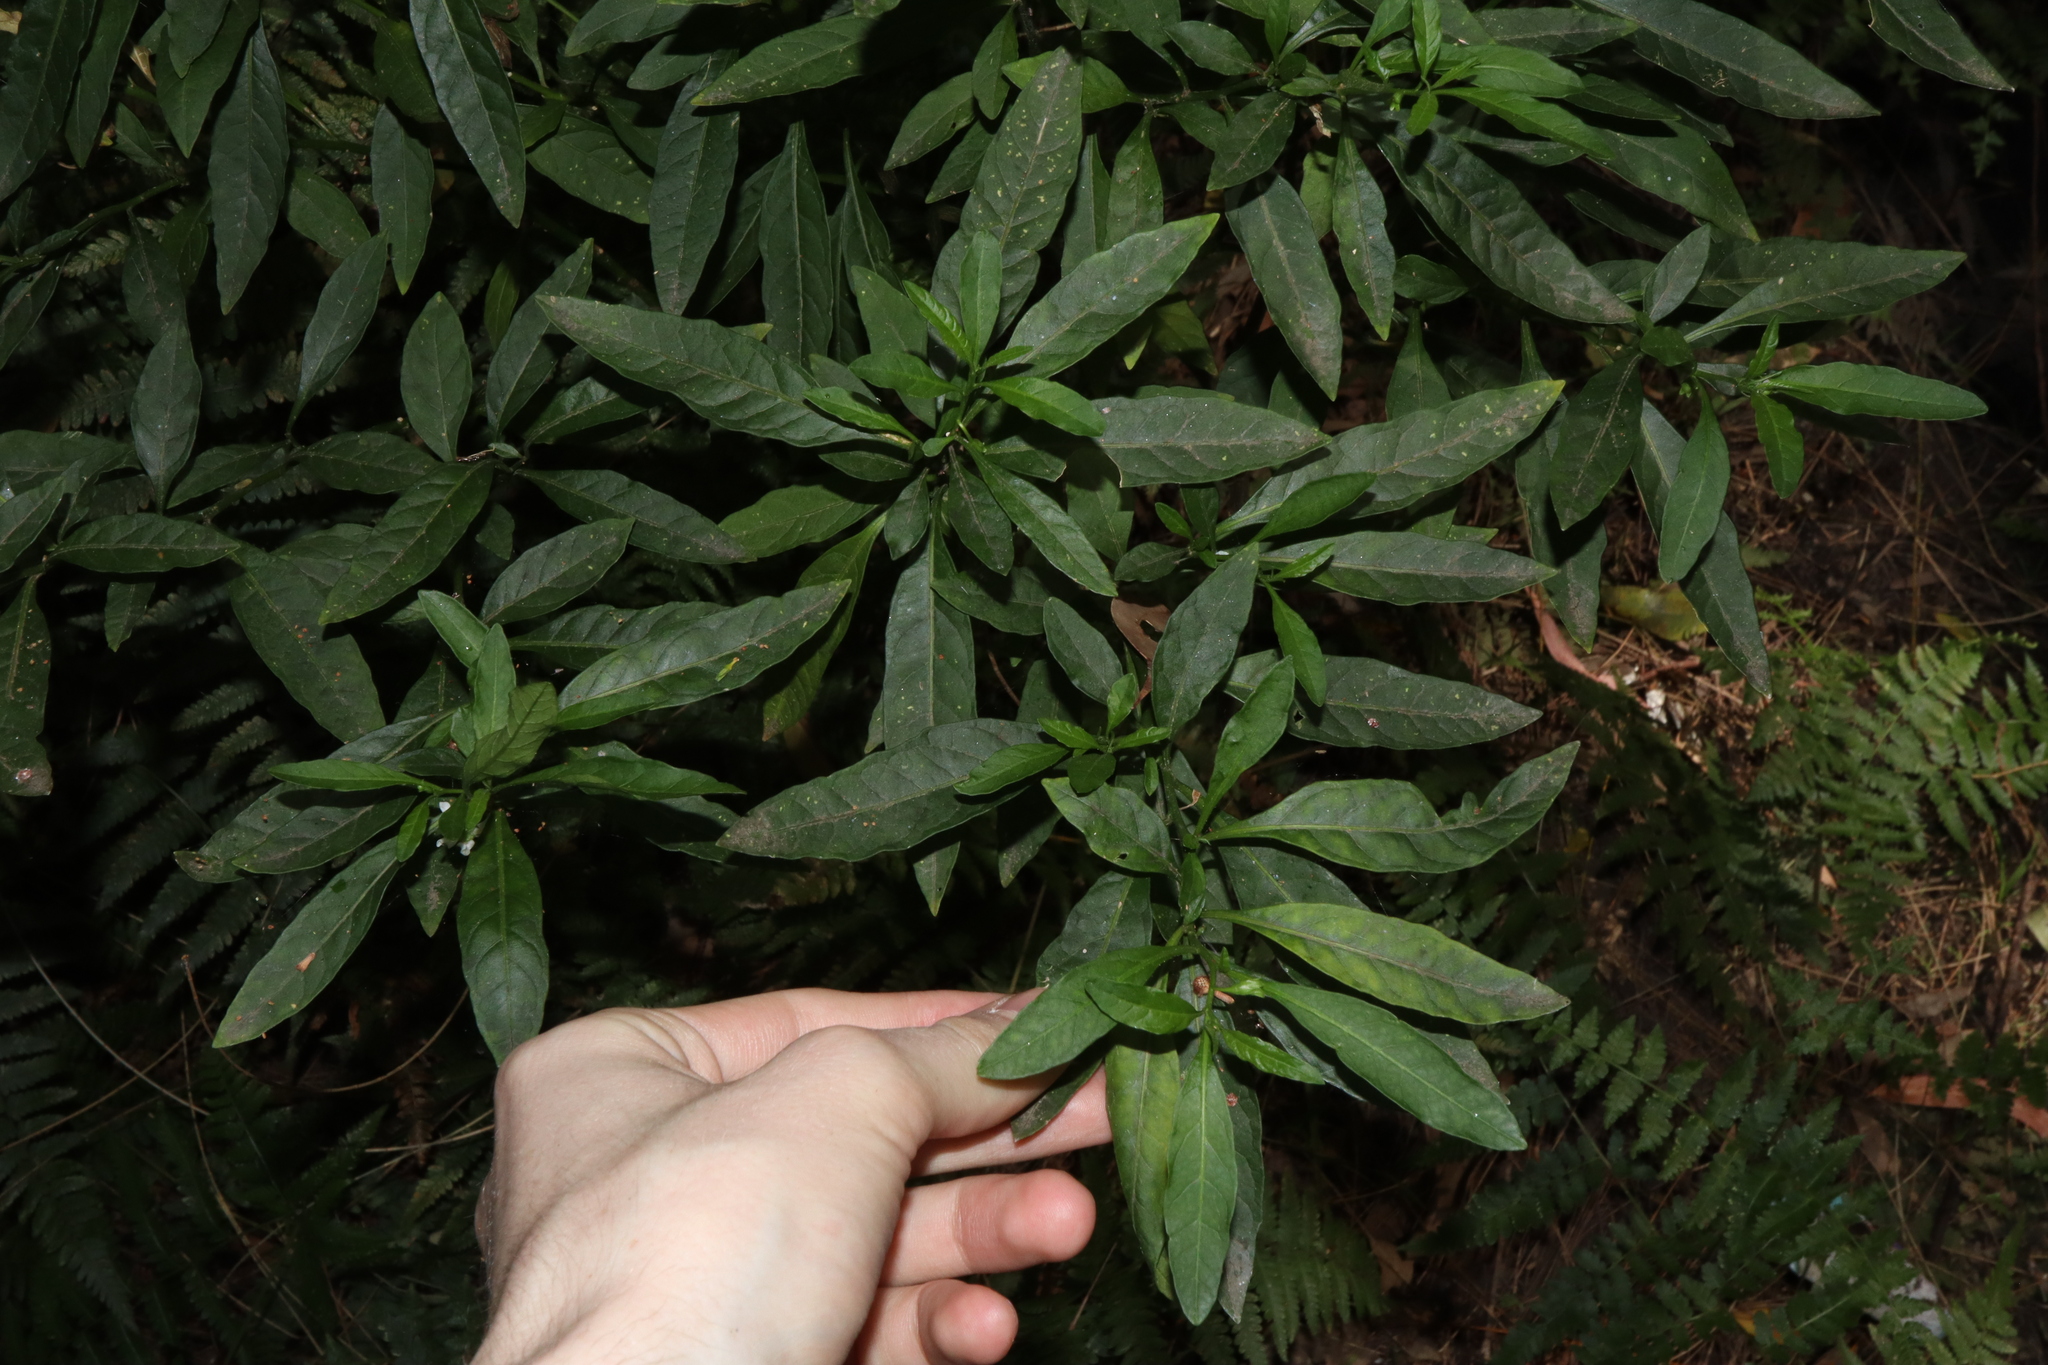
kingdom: Plantae
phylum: Tracheophyta
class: Magnoliopsida
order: Solanales
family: Solanaceae
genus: Solanum
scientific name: Solanum pseudocapsicum
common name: Jerusalem cherry
